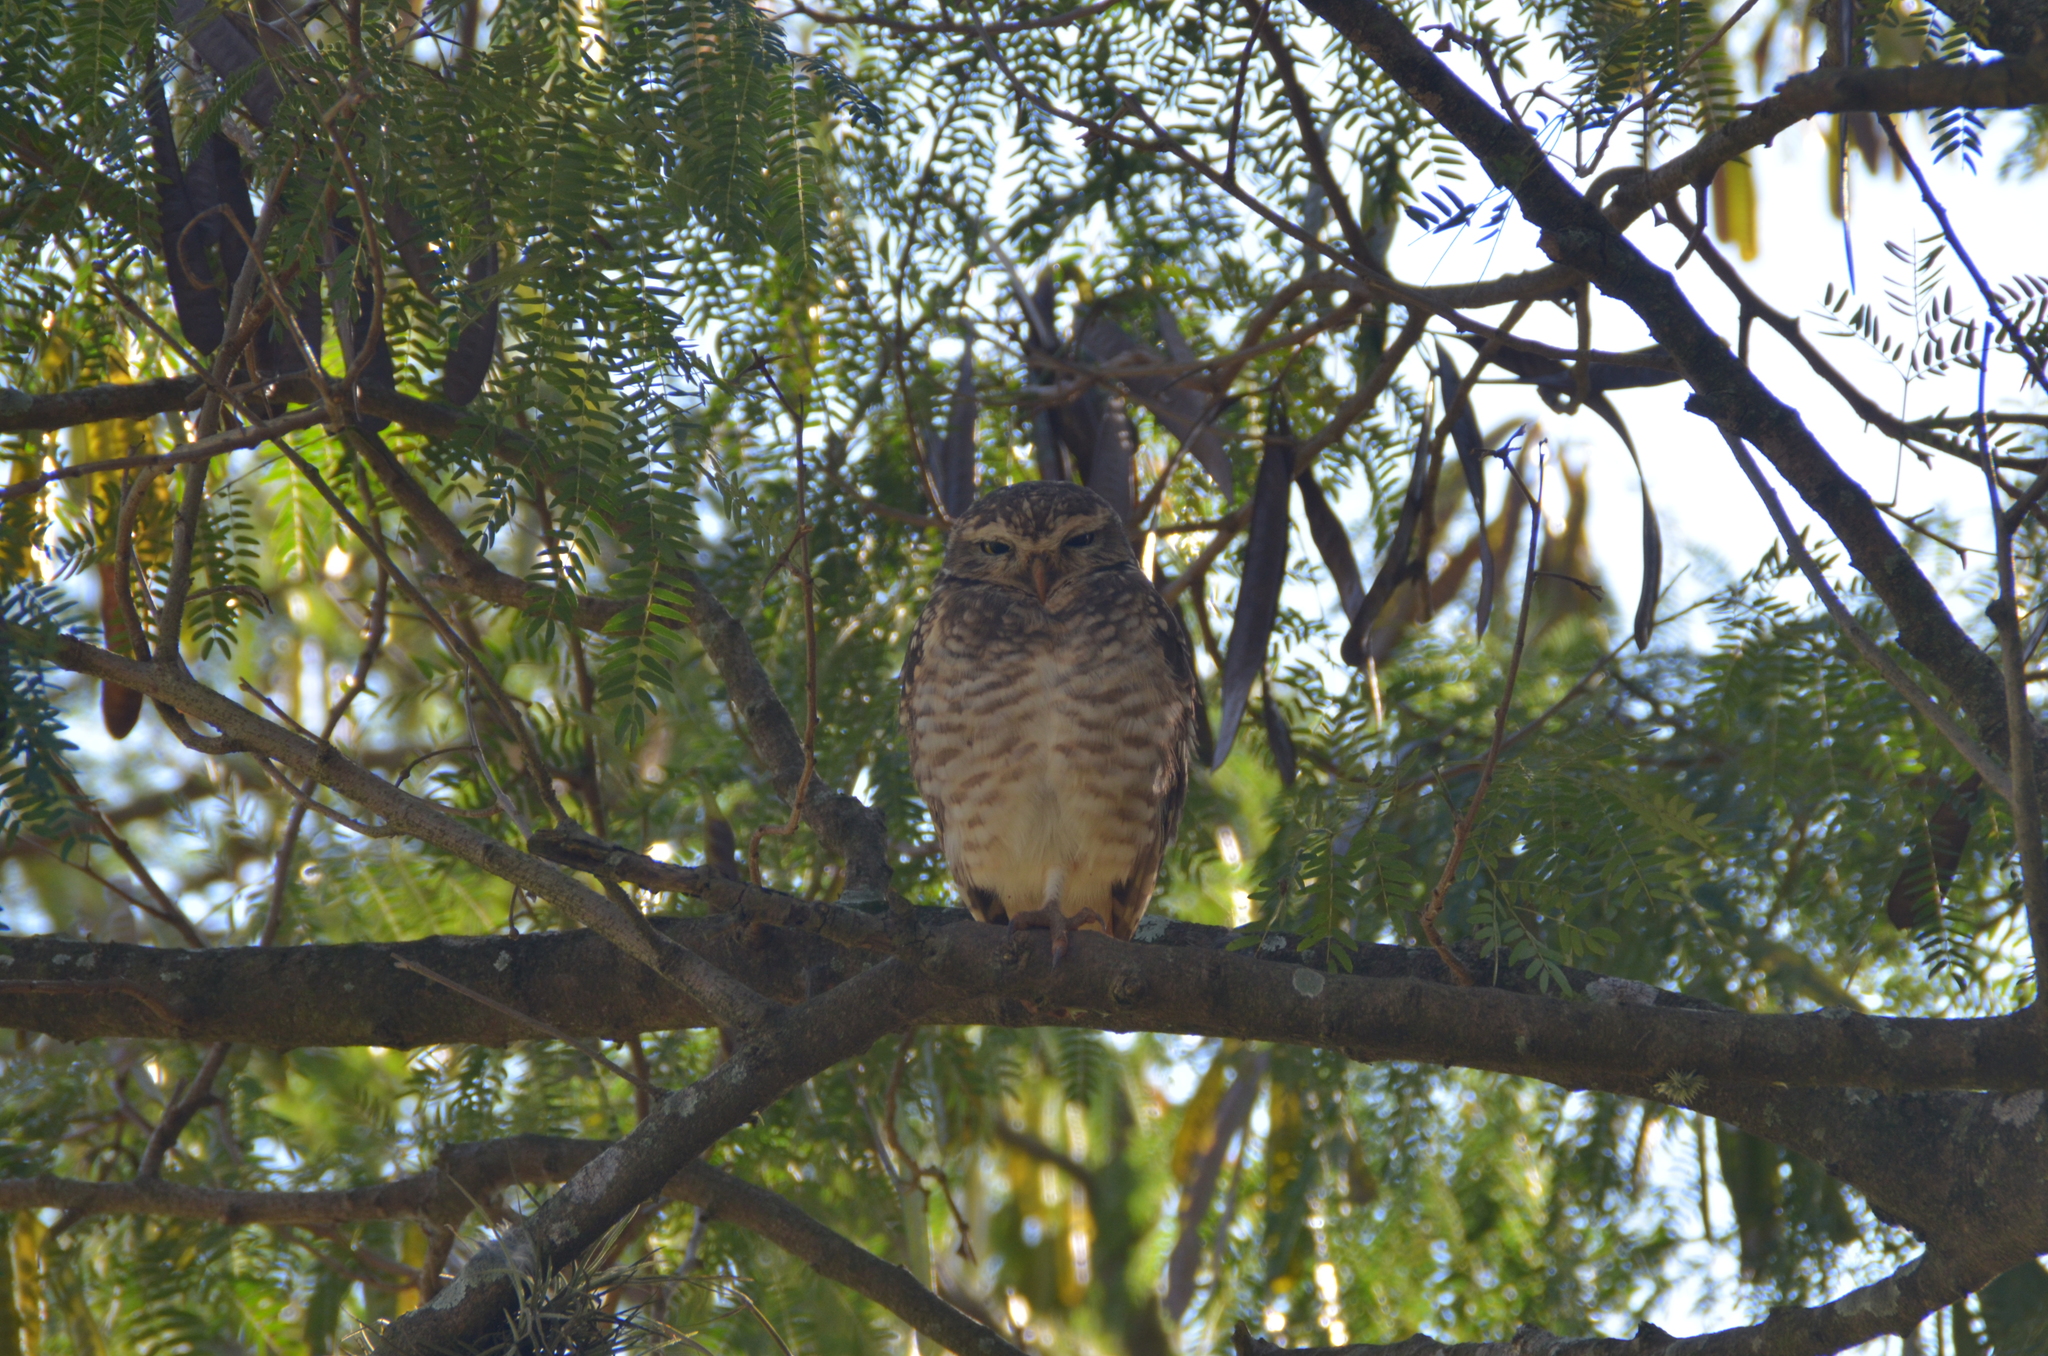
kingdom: Animalia
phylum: Chordata
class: Aves
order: Strigiformes
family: Strigidae
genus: Athene
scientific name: Athene cunicularia
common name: Burrowing owl
